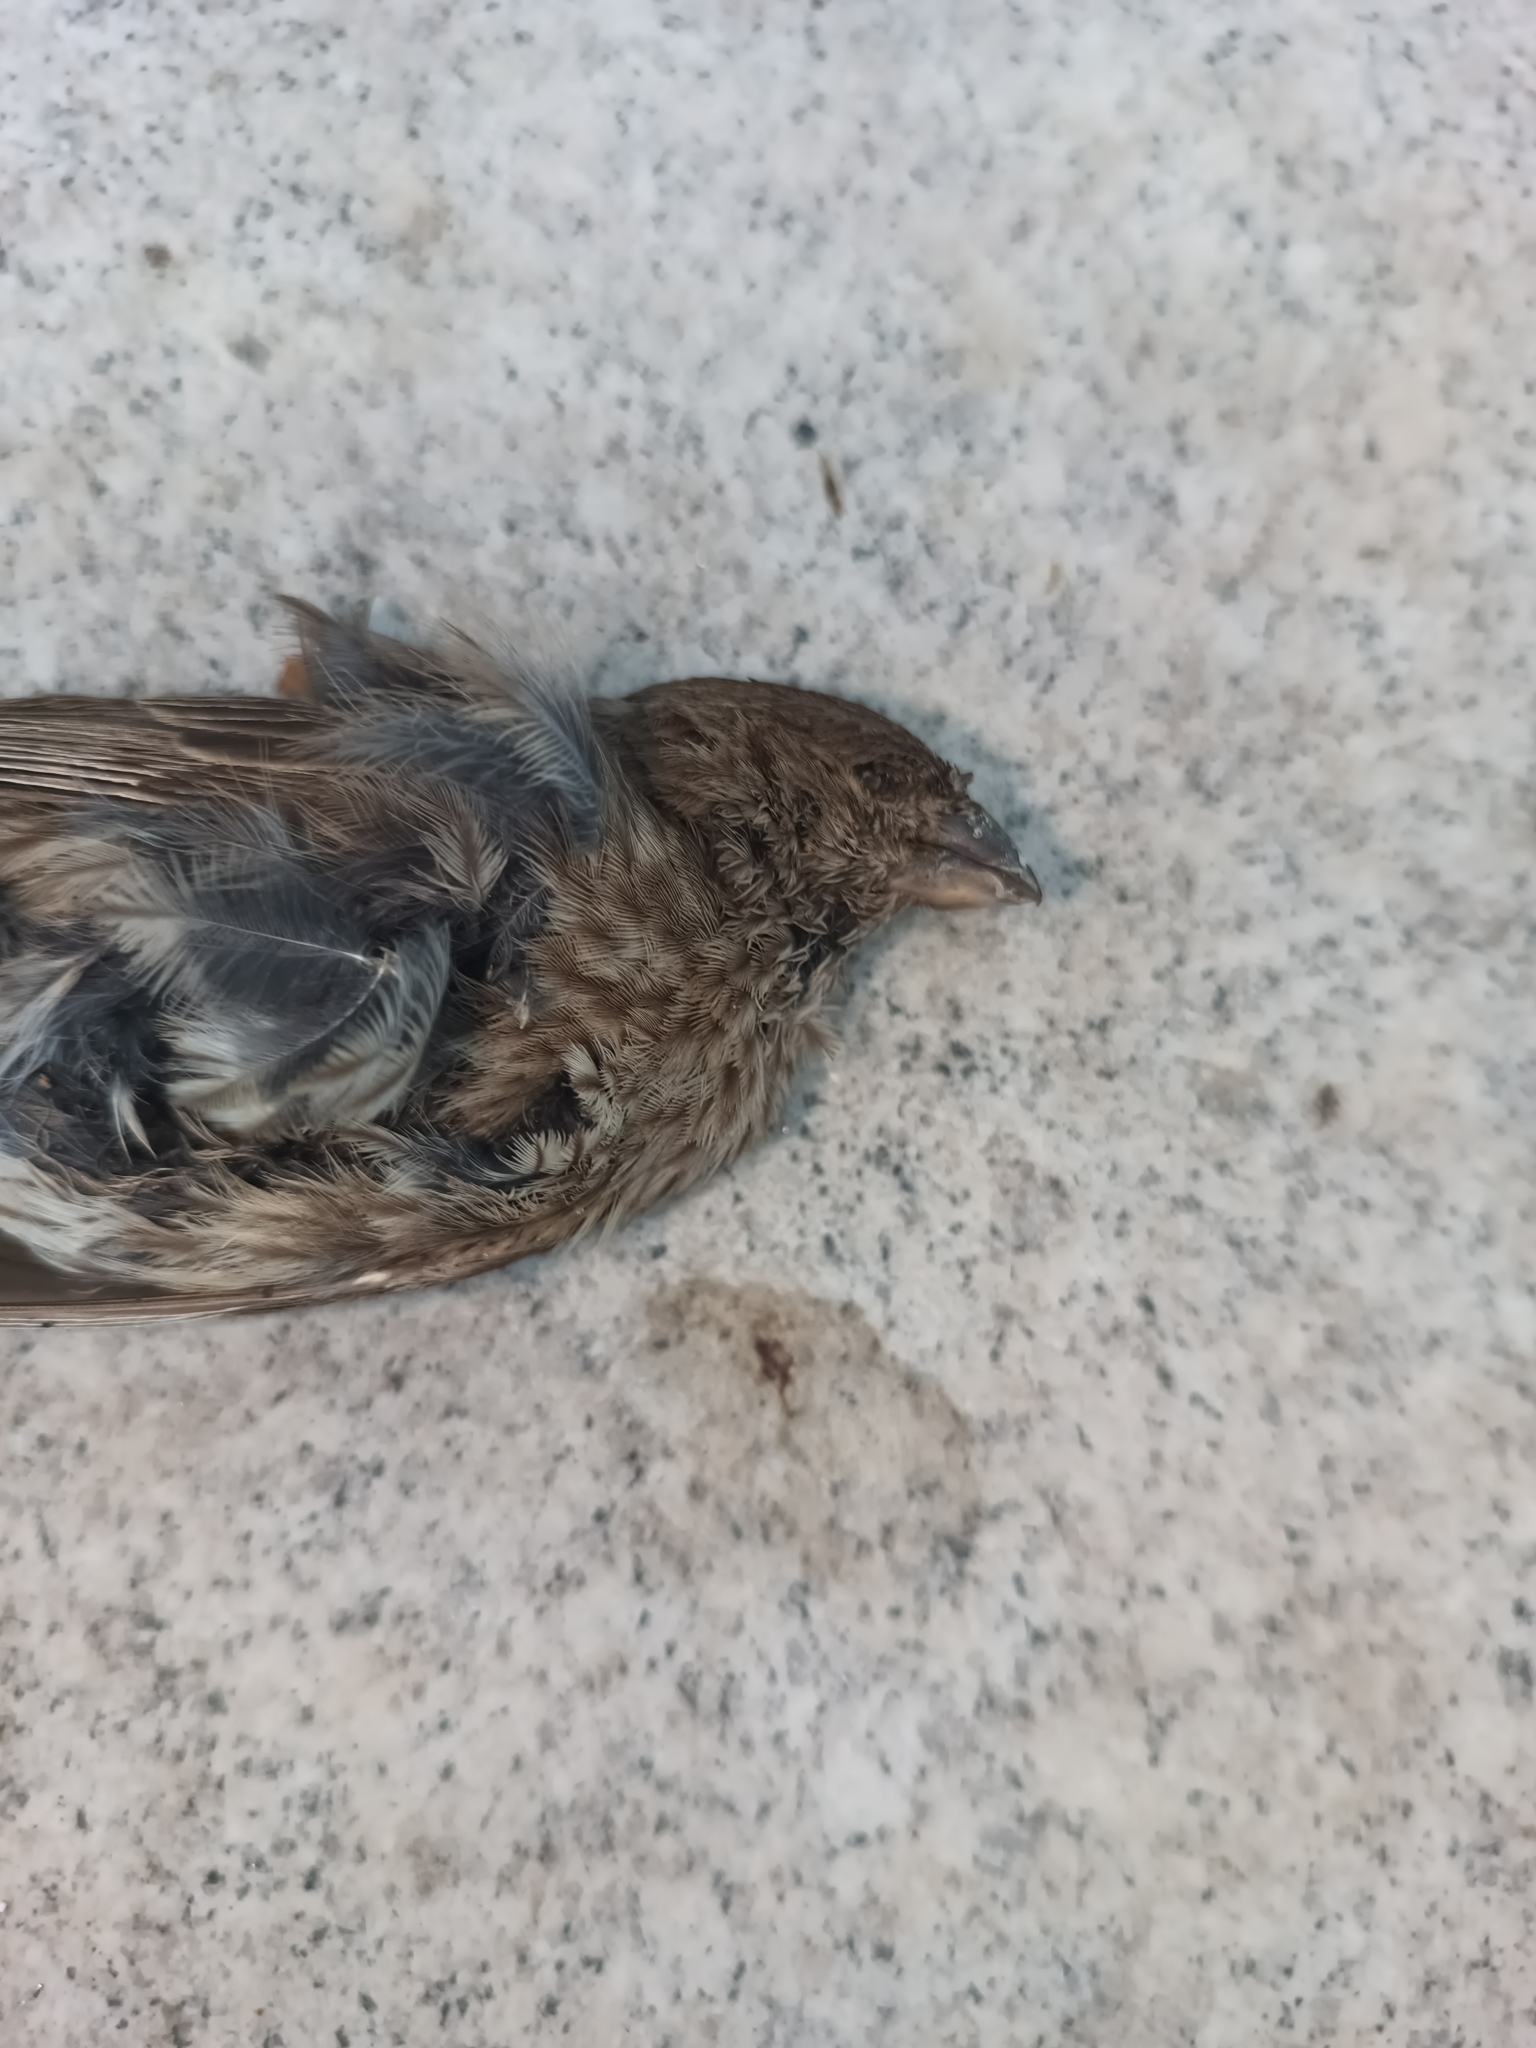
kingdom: Animalia
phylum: Chordata
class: Aves
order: Passeriformes
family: Fringillidae
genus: Haemorhous
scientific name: Haemorhous mexicanus
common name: House finch
